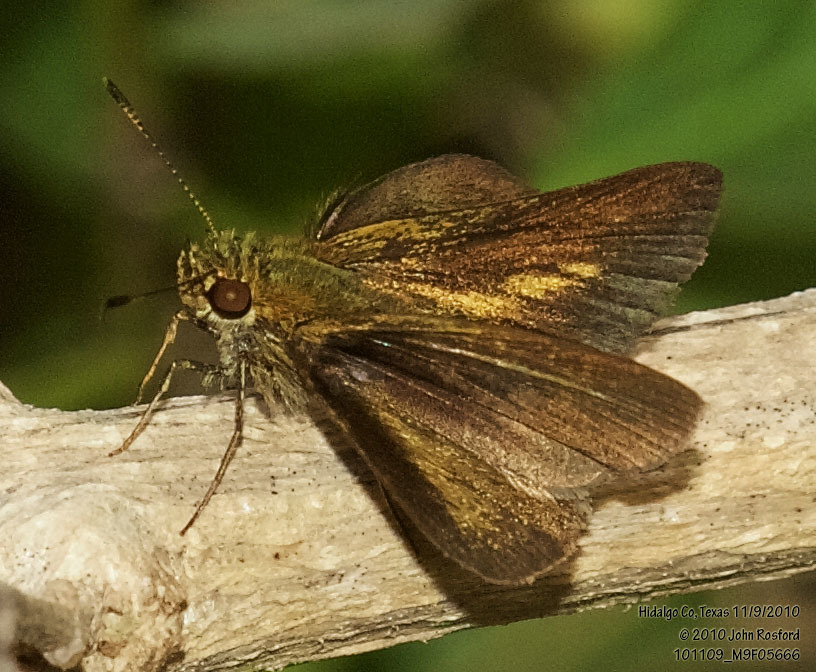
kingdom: Animalia
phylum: Arthropoda
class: Insecta
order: Lepidoptera
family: Hesperiidae
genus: Corticea
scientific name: Corticea corticea
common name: Redundant skipper
